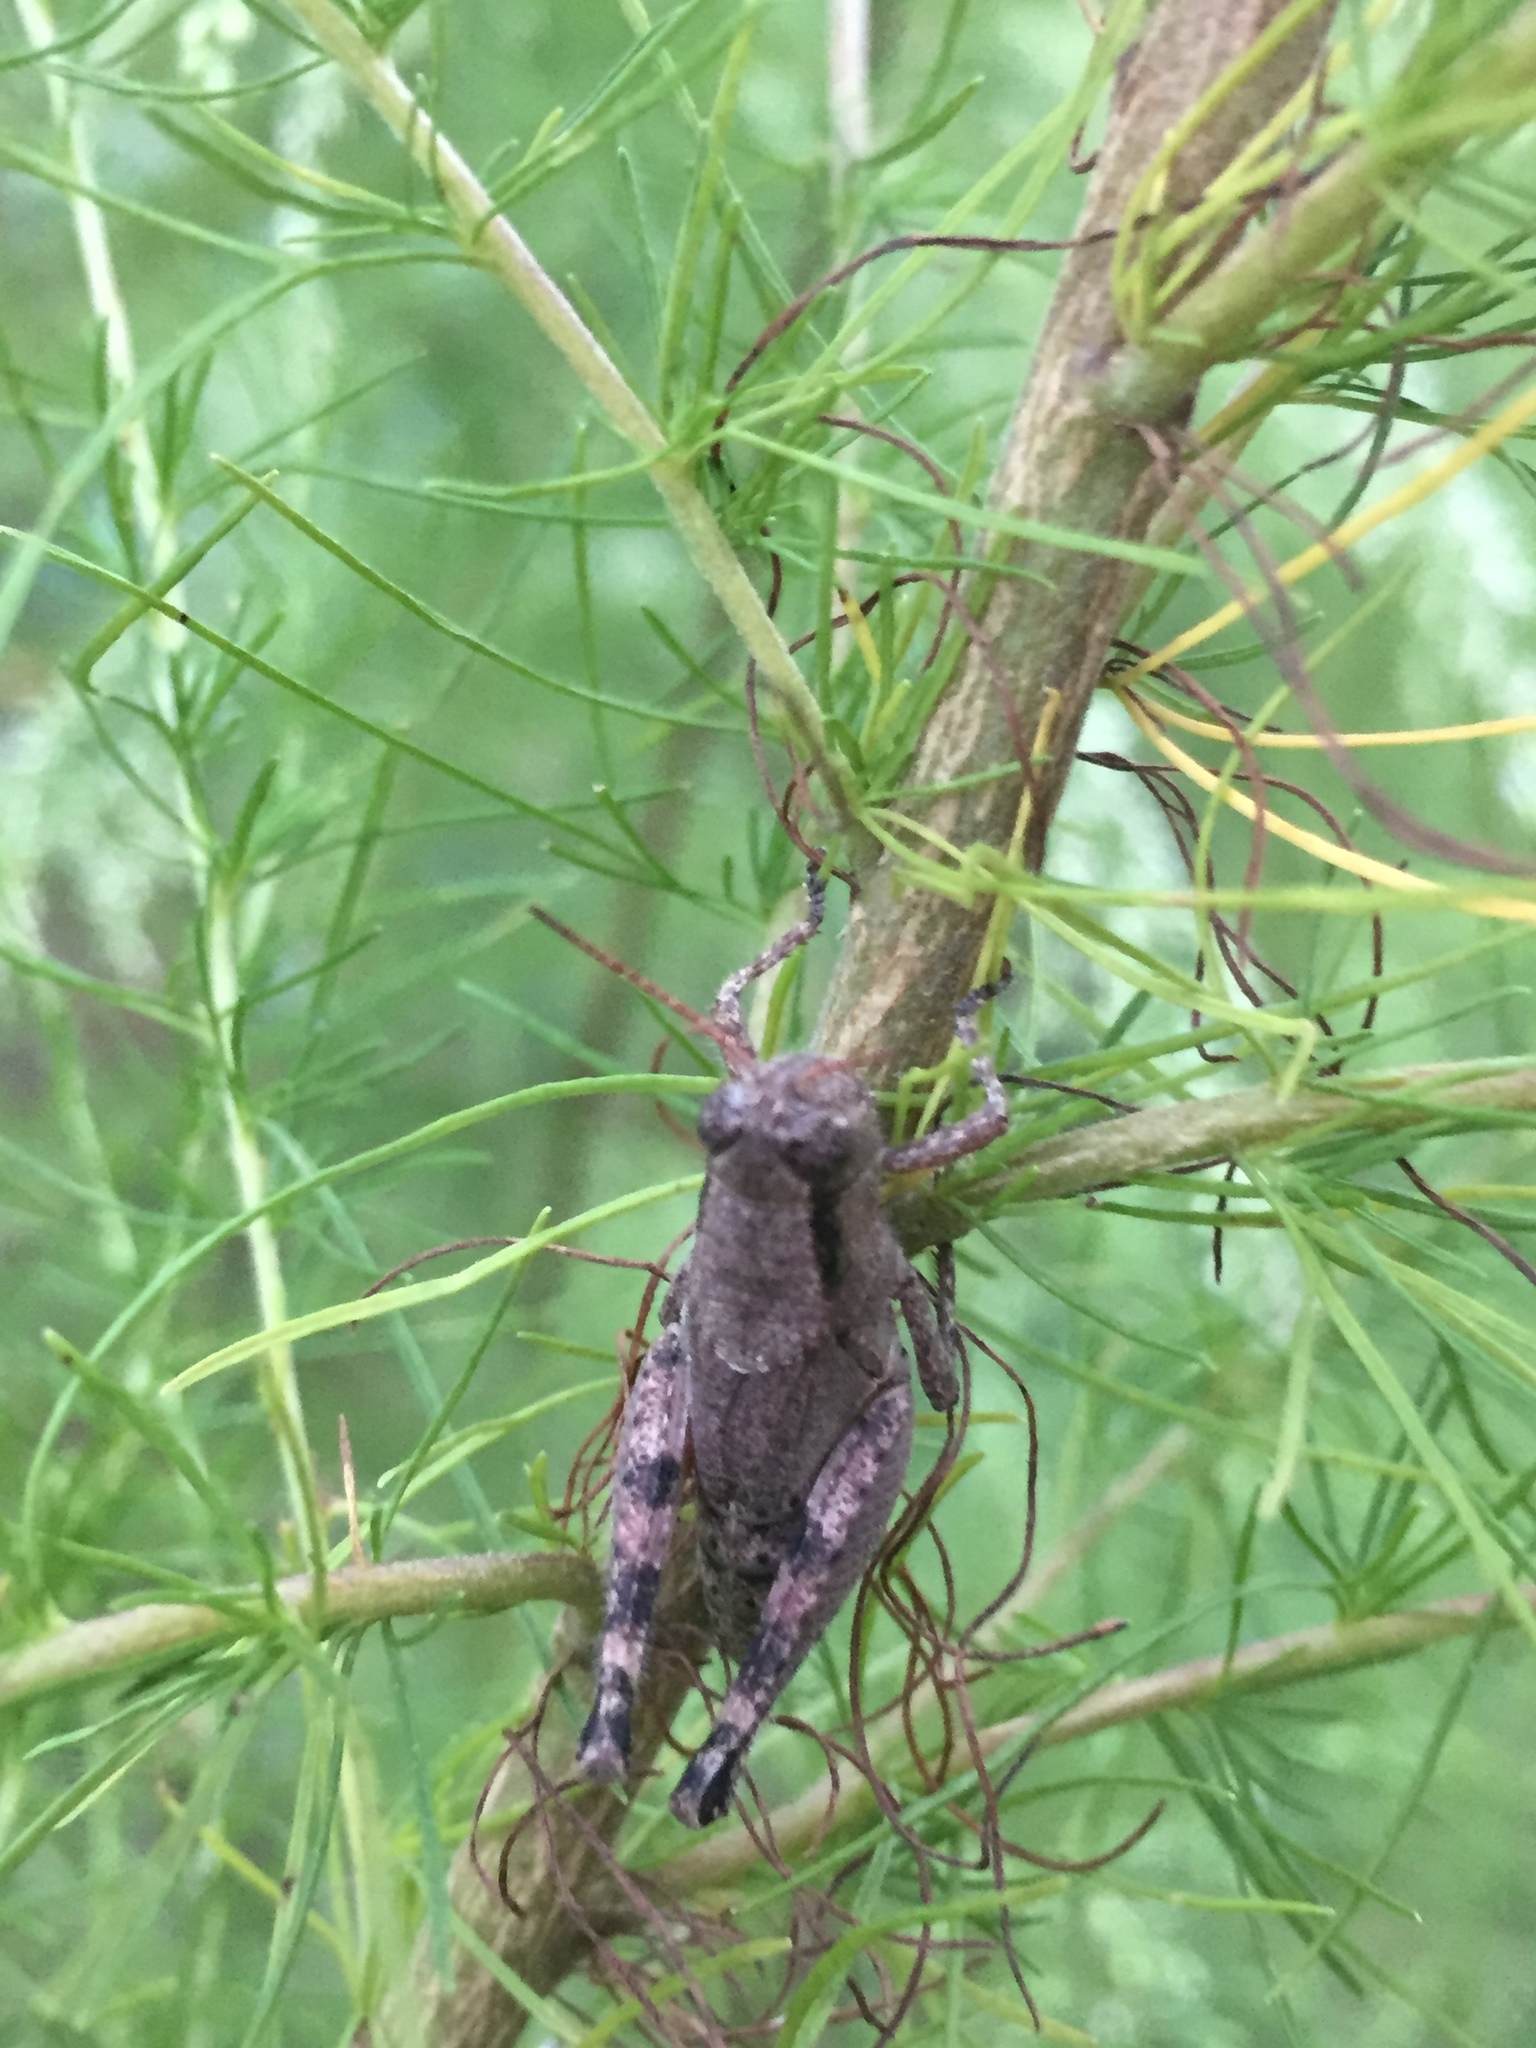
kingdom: Animalia
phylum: Arthropoda
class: Insecta
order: Orthoptera
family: Acrididae
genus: Melanoplus
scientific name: Melanoplus scudderi
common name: Scudder's short-winged locust
